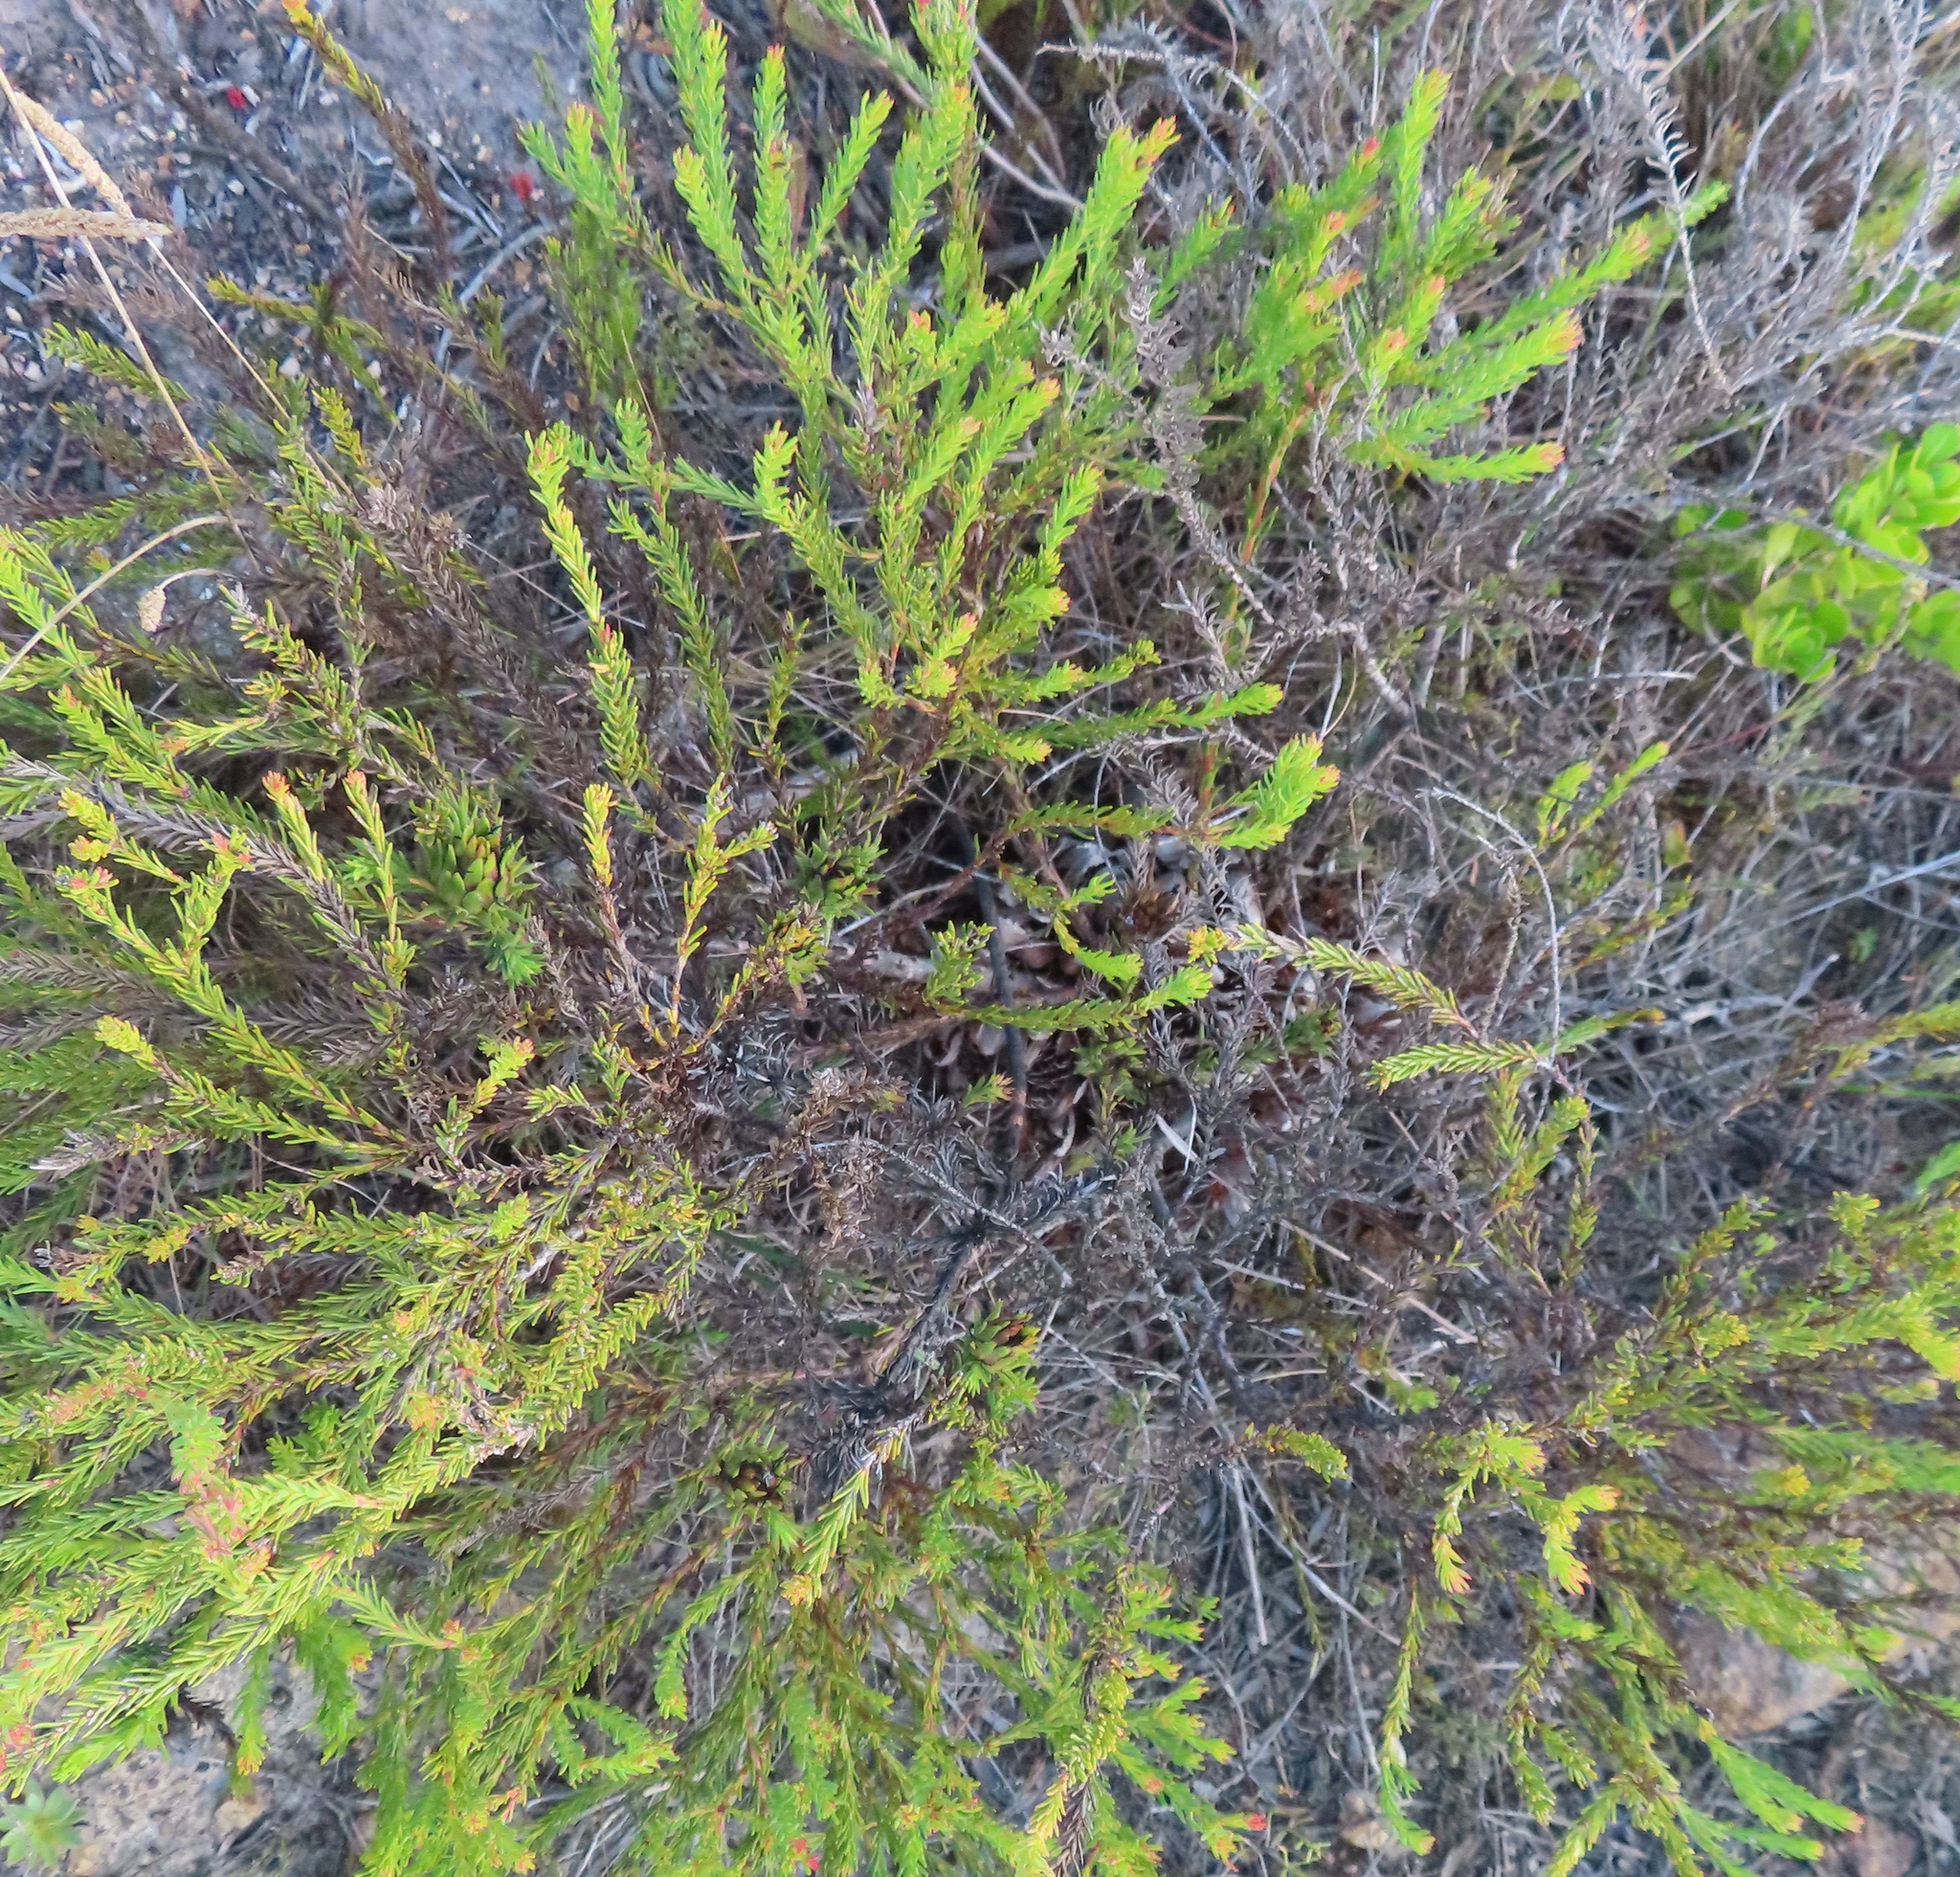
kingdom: Plantae
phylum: Tracheophyta
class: Magnoliopsida
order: Proteales
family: Proteaceae
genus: Protea
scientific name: Protea subulifolia
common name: Awl-leaf sugarbush
